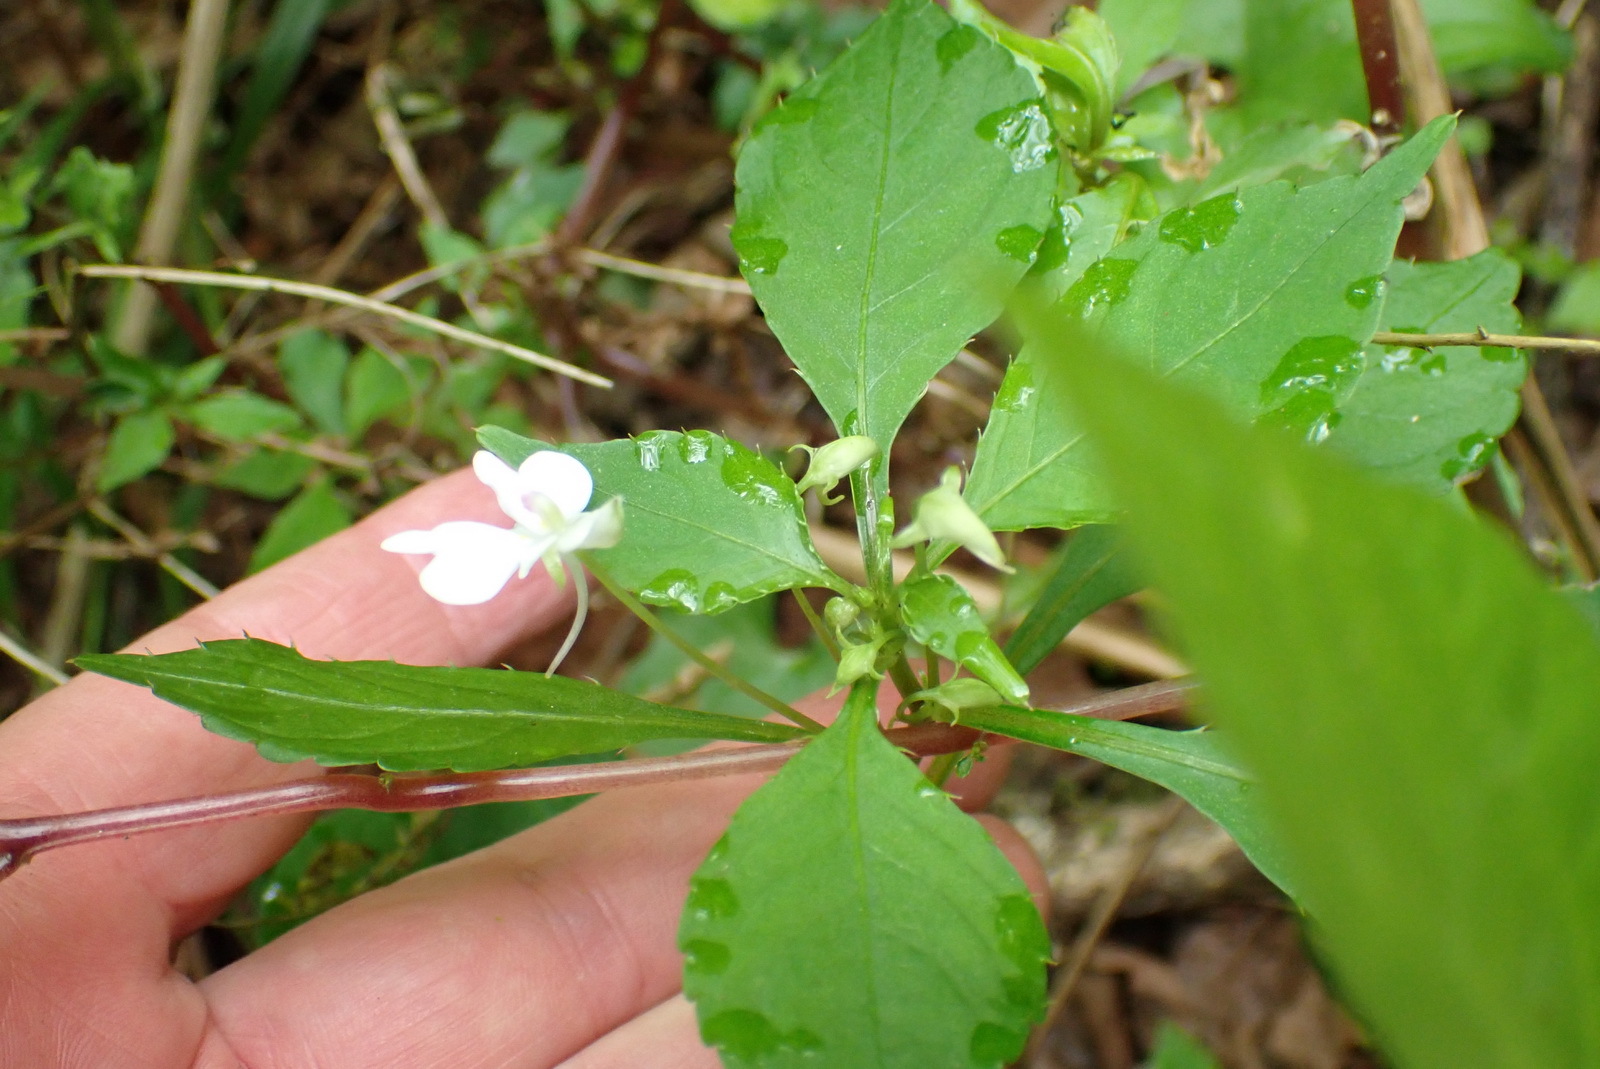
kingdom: Plantae
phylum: Tracheophyta
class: Magnoliopsida
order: Ericales
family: Balsaminaceae
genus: Impatiens
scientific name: Impatiens hochstetteri
